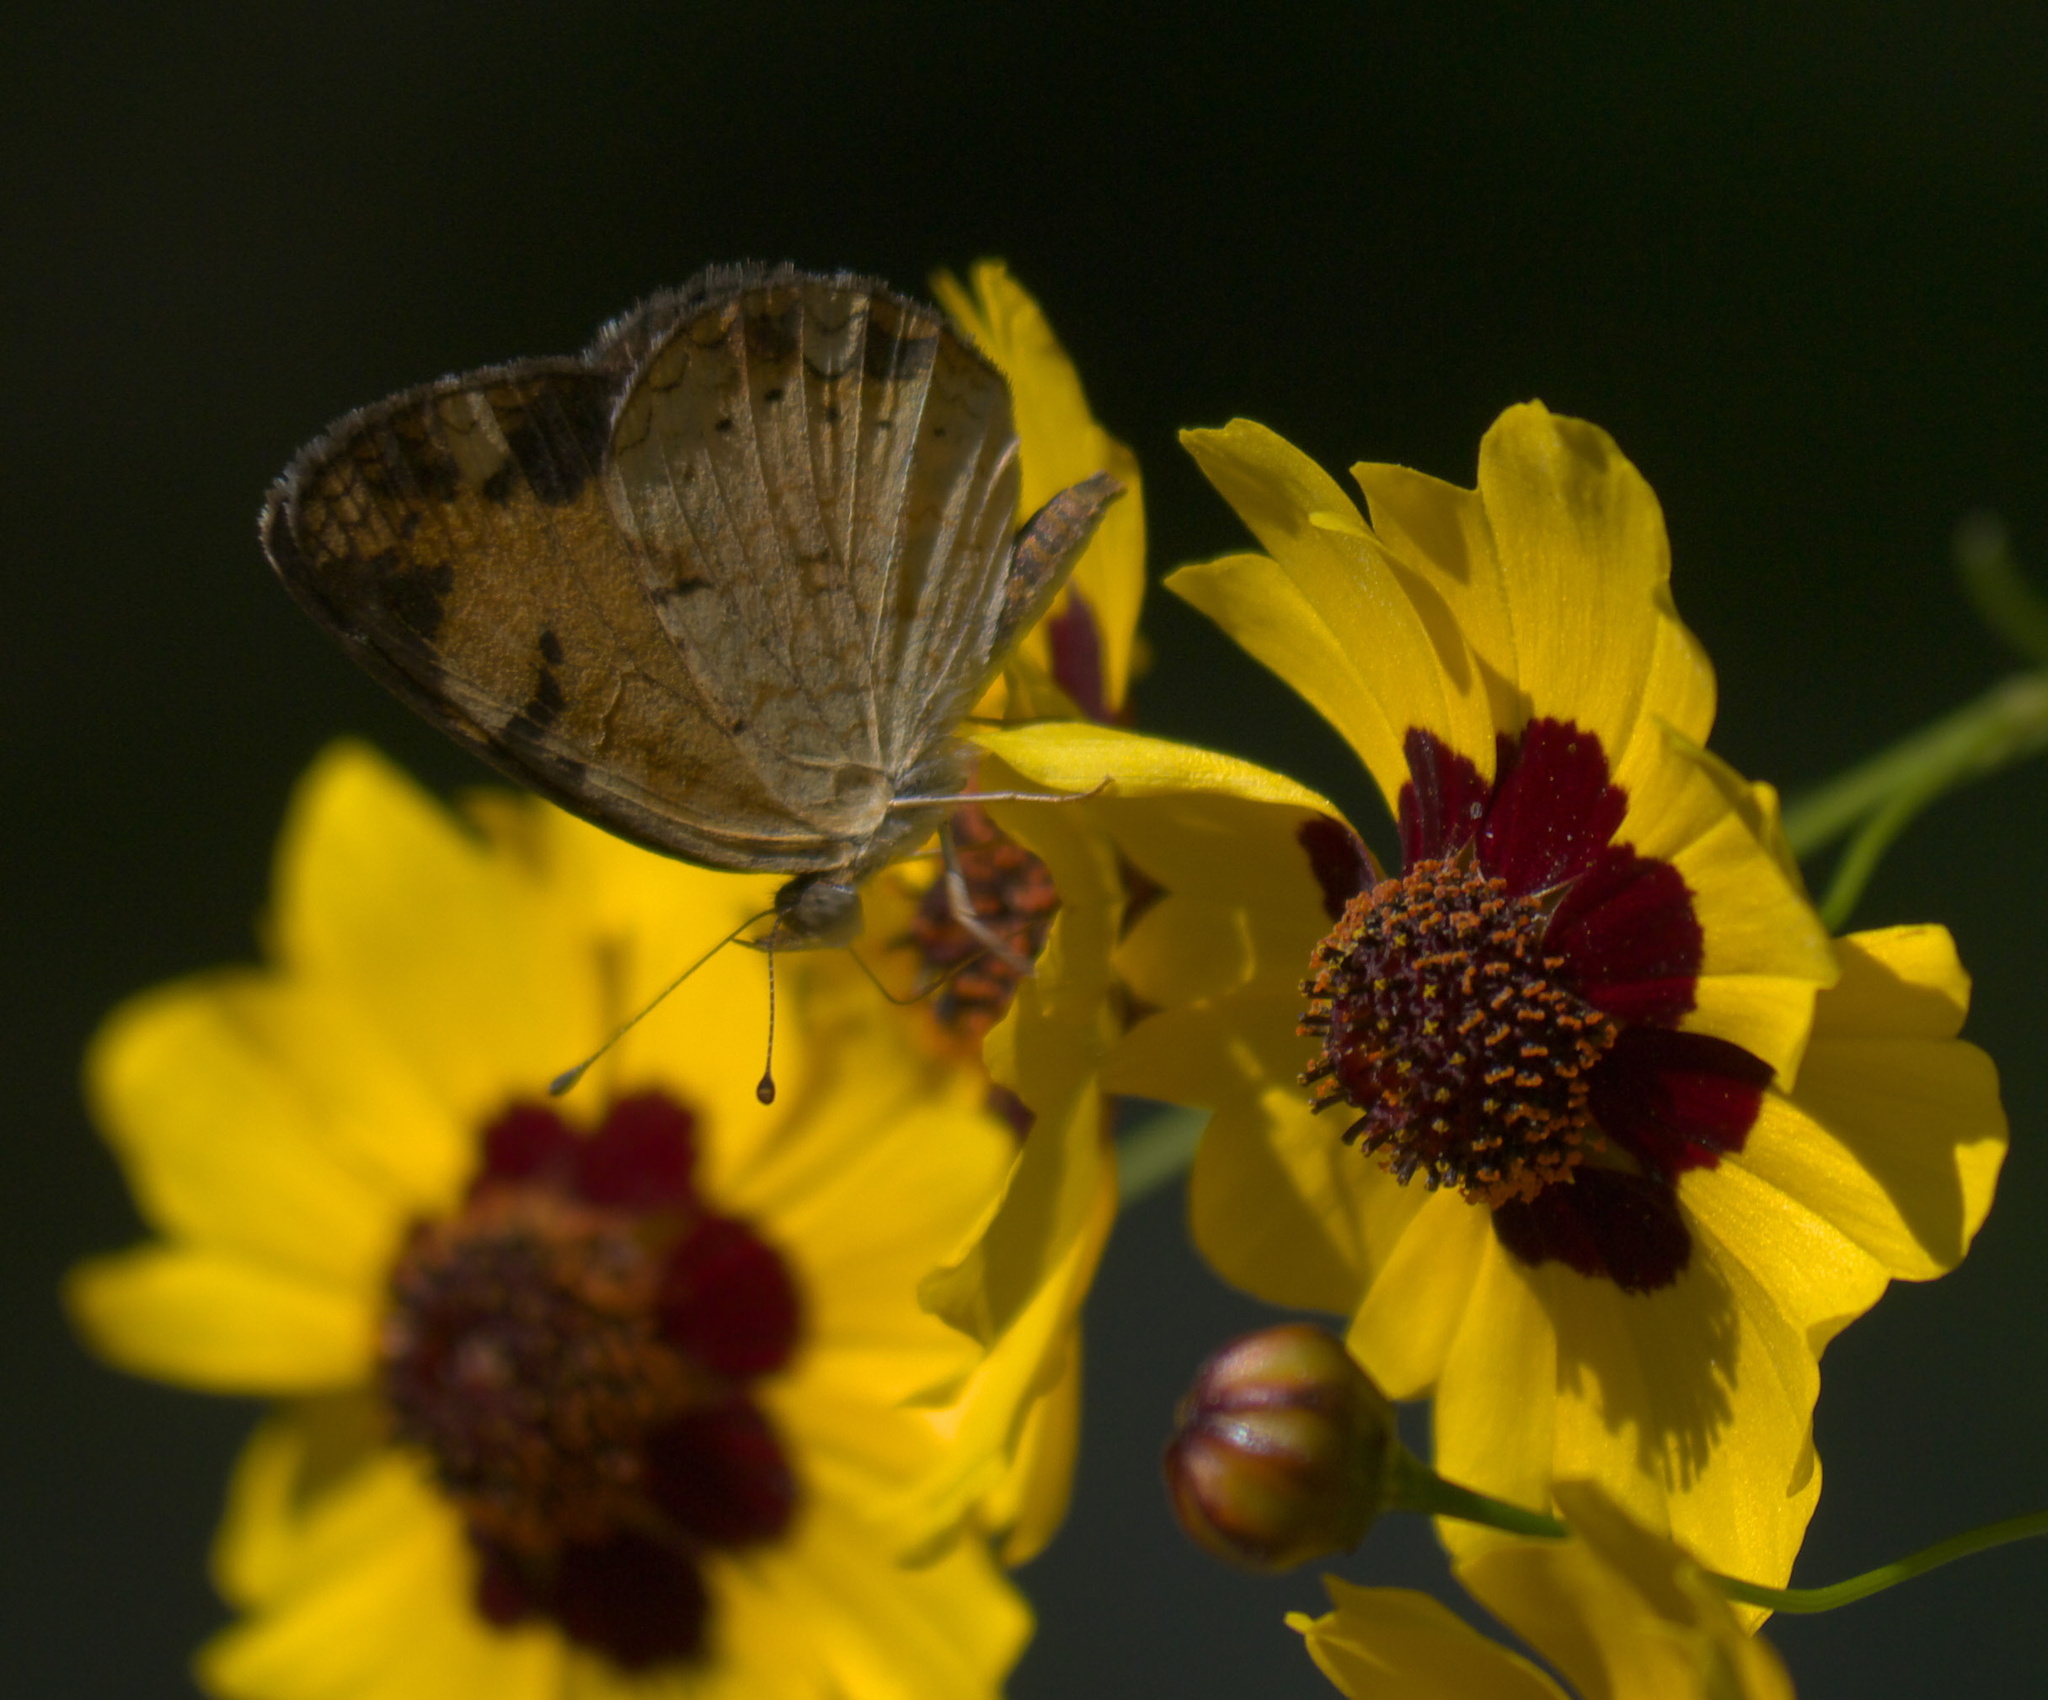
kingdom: Animalia
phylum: Arthropoda
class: Insecta
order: Lepidoptera
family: Nymphalidae
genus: Phyciodes
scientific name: Phyciodes tharos
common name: Pearl crescent
